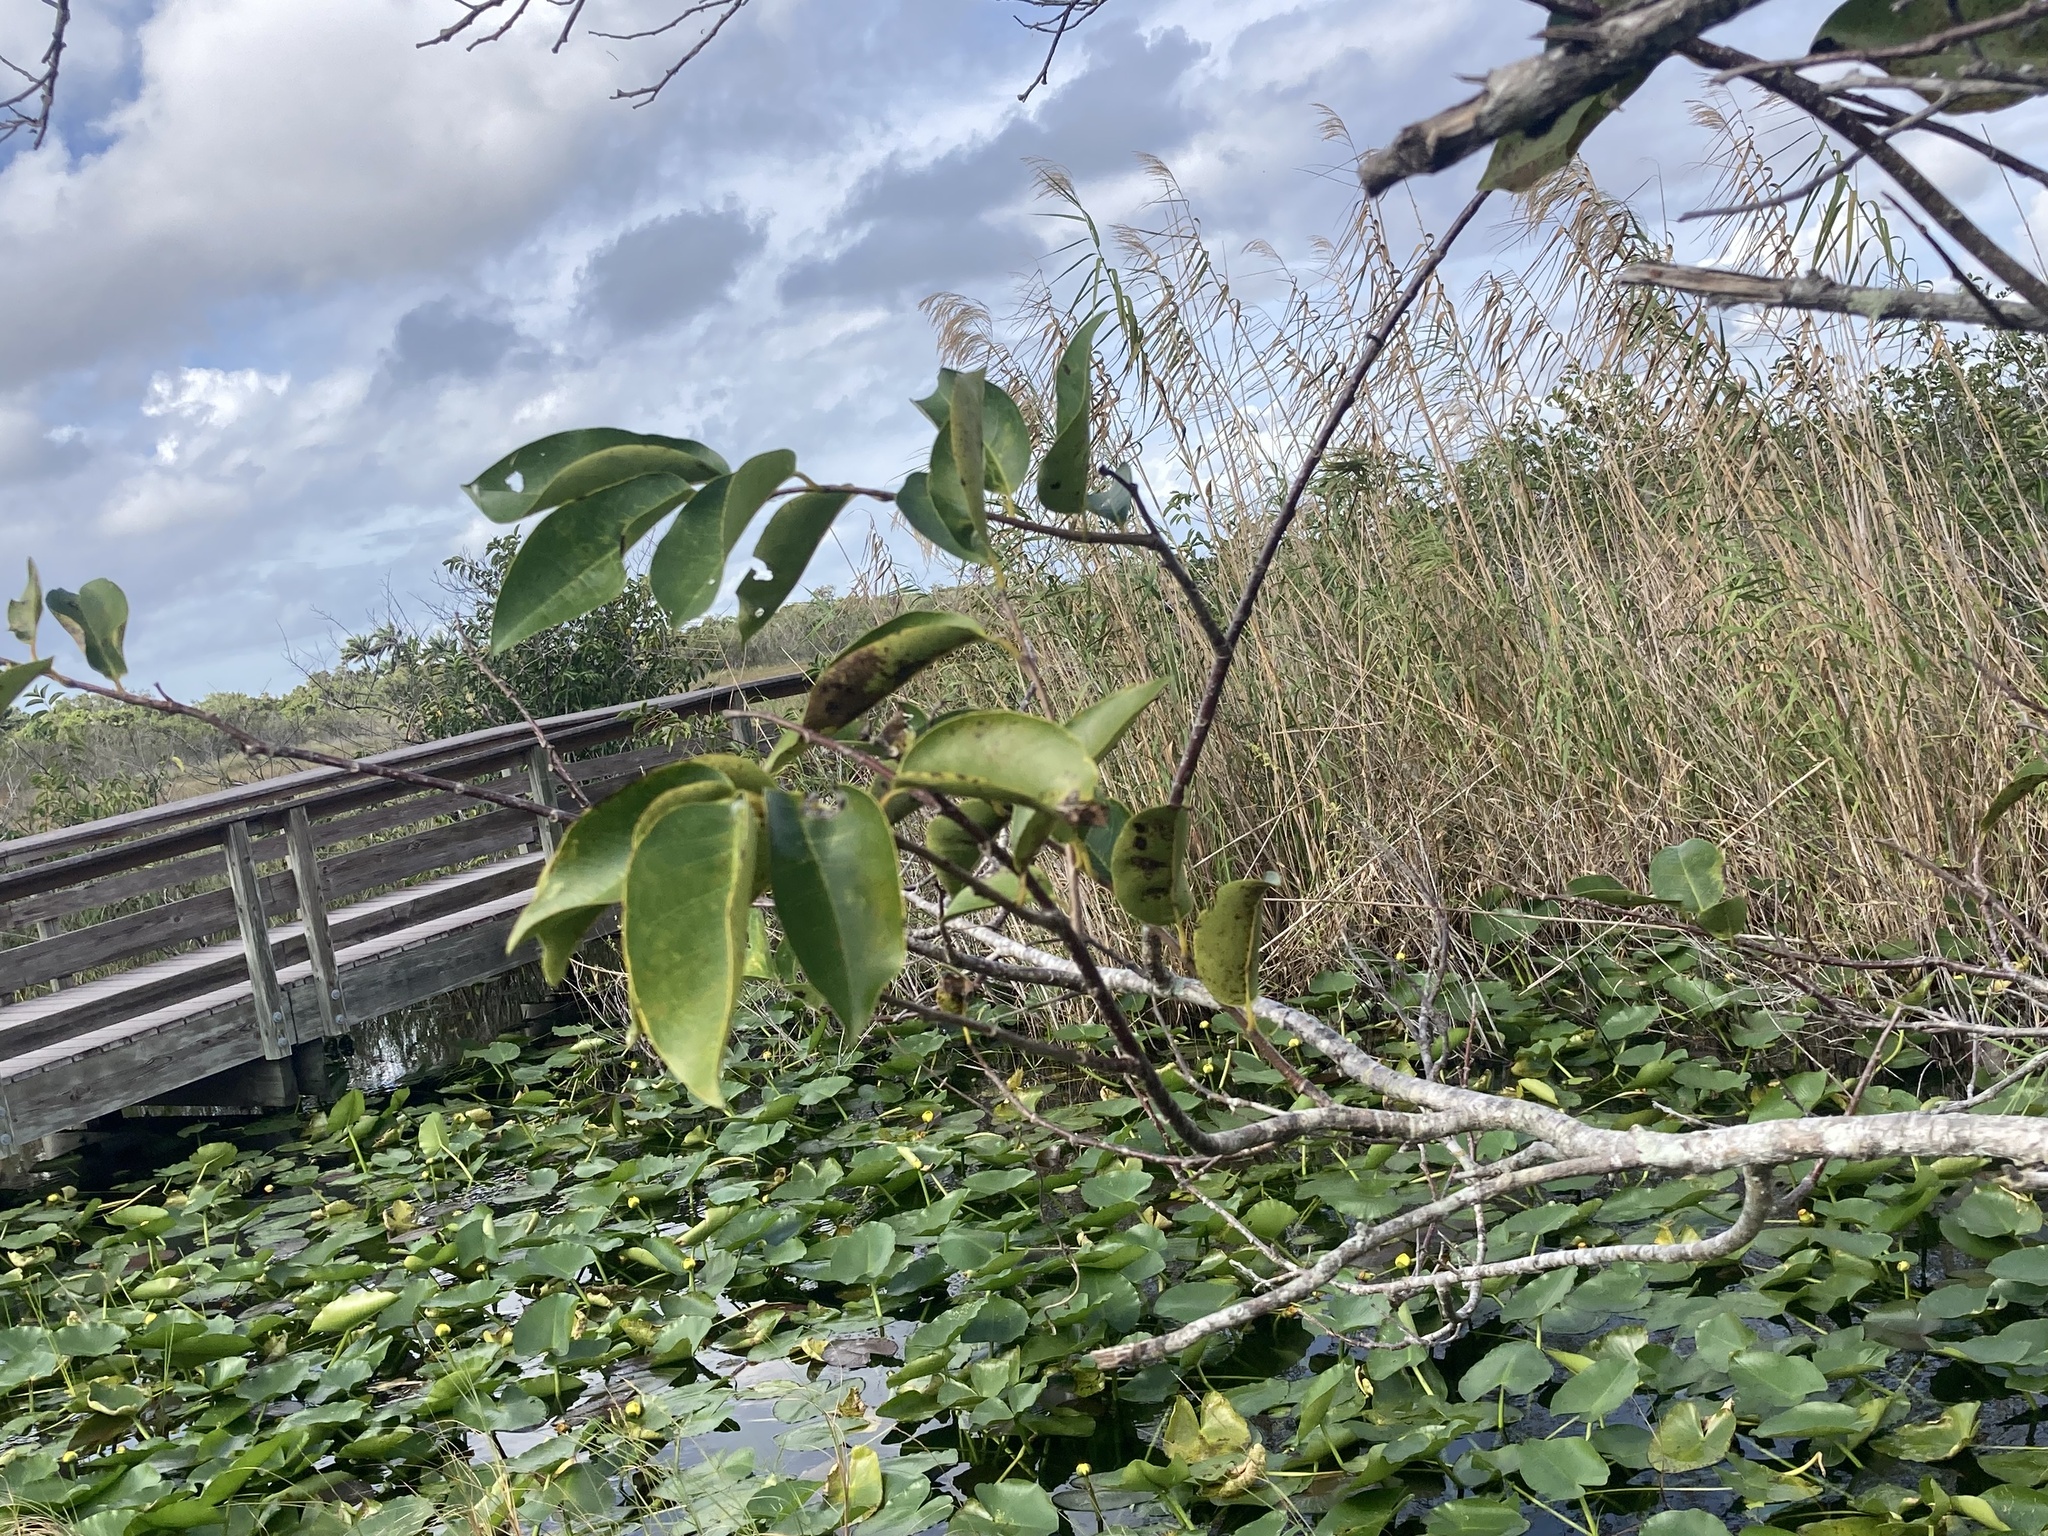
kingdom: Plantae
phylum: Tracheophyta
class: Magnoliopsida
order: Magnoliales
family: Annonaceae
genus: Annona
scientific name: Annona glabra
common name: Monkey apple
